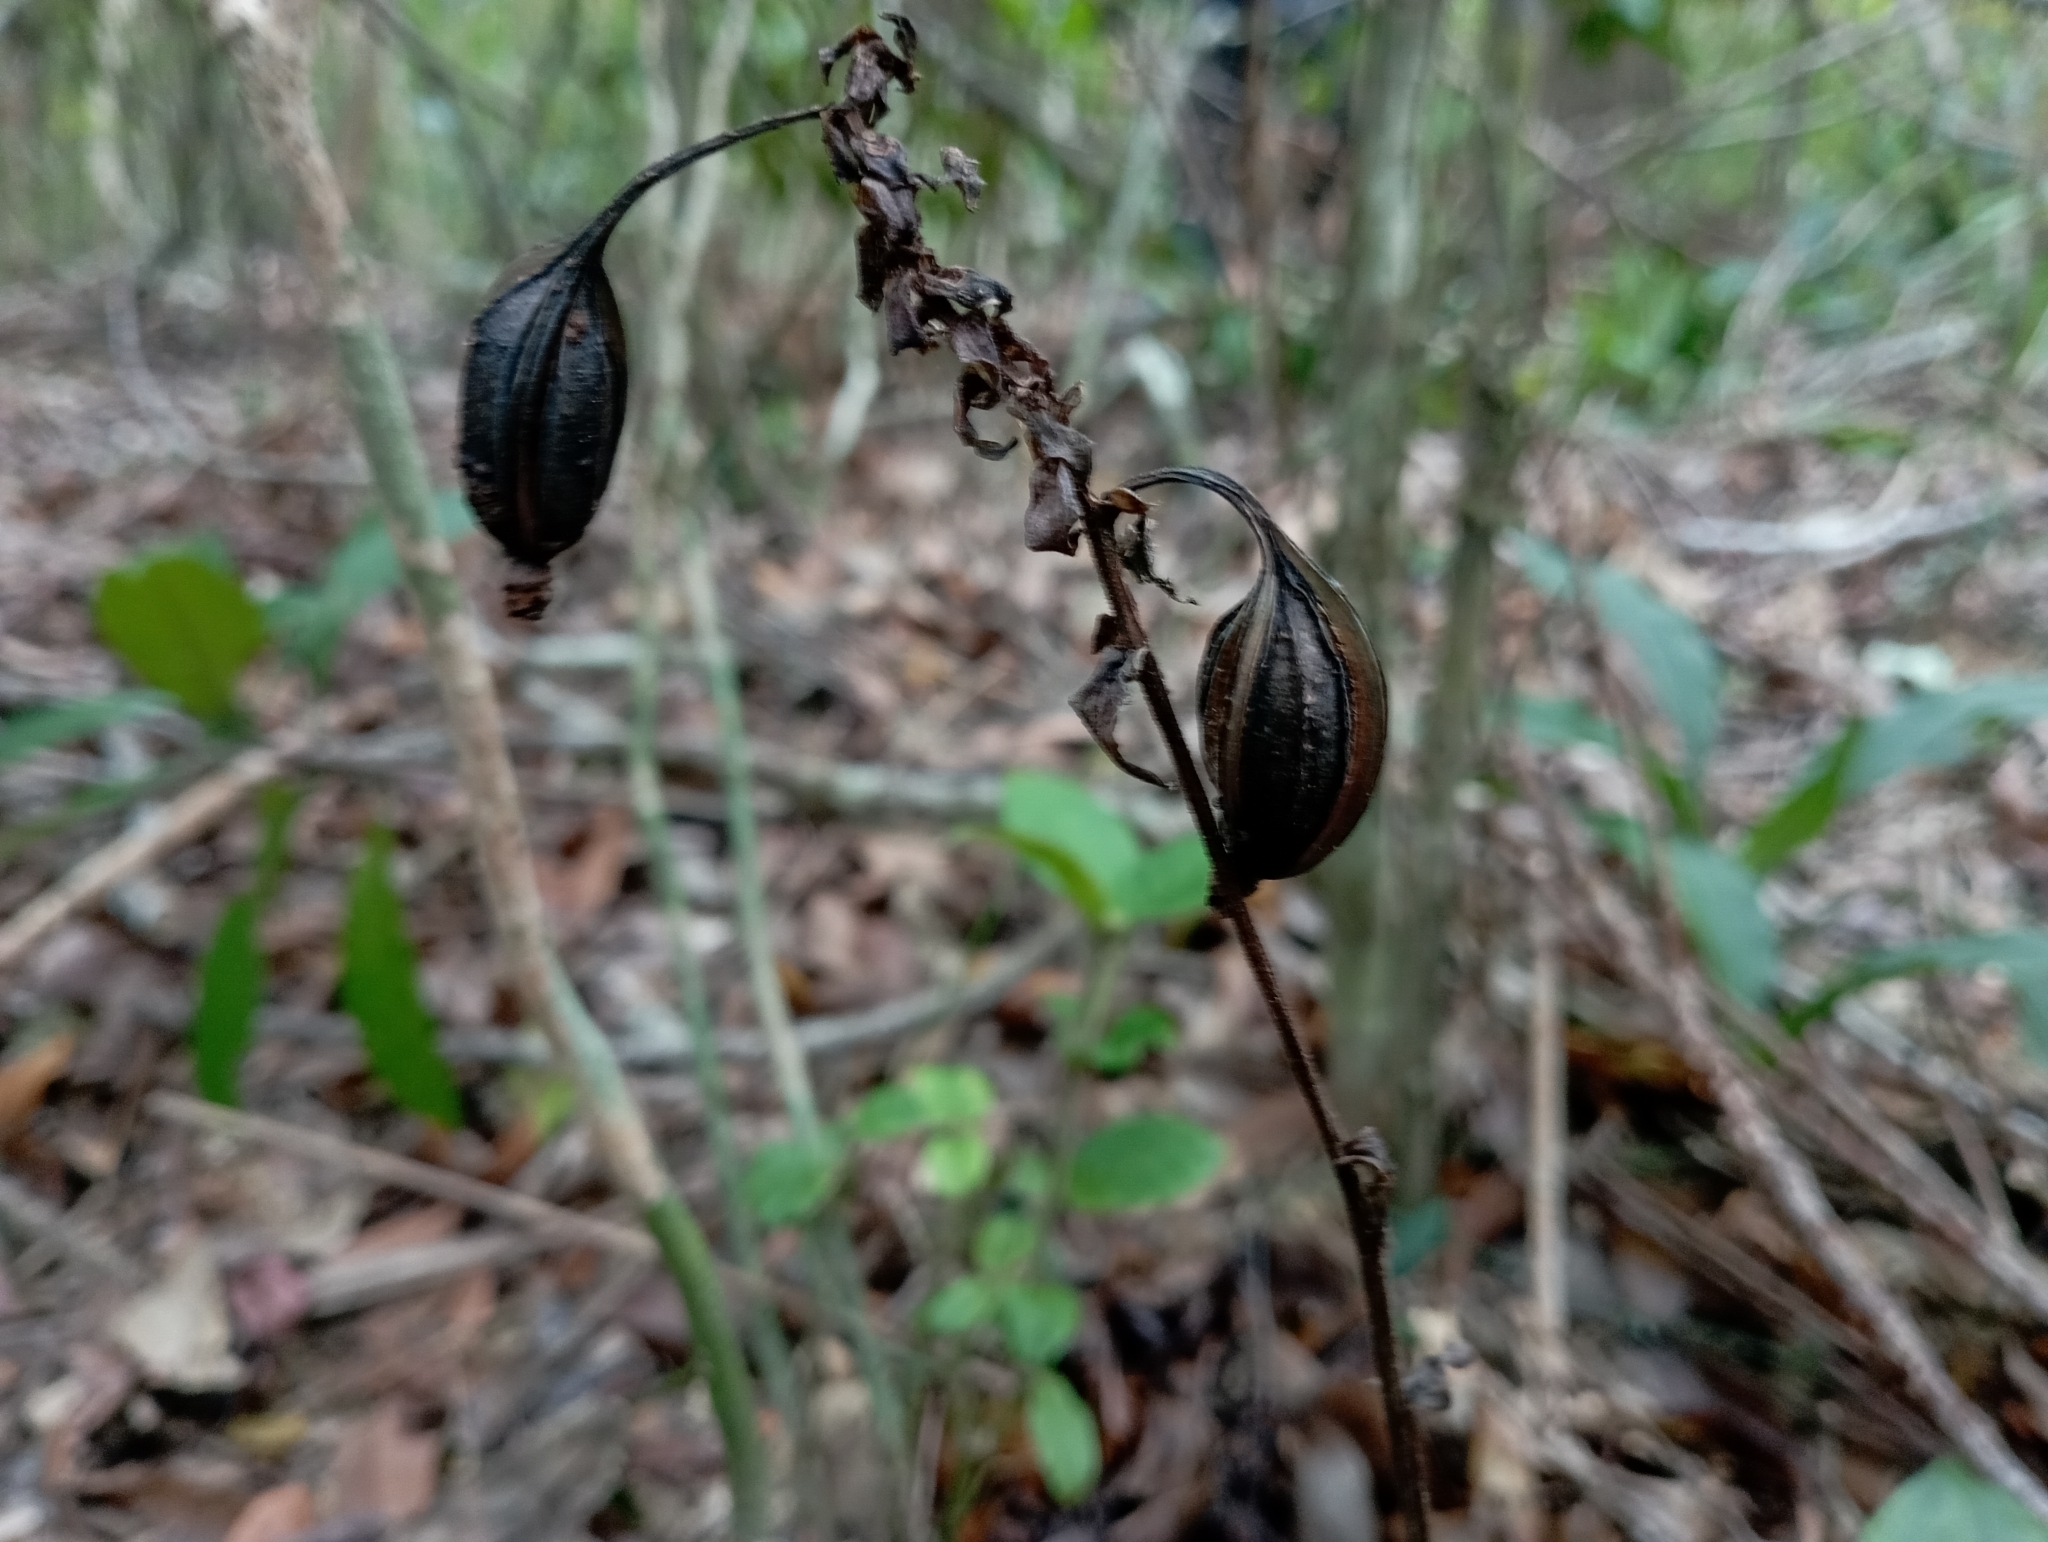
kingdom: Plantae
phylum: Tracheophyta
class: Liliopsida
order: Asparagales
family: Orchidaceae
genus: Calanthe
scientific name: Calanthe triplicata
